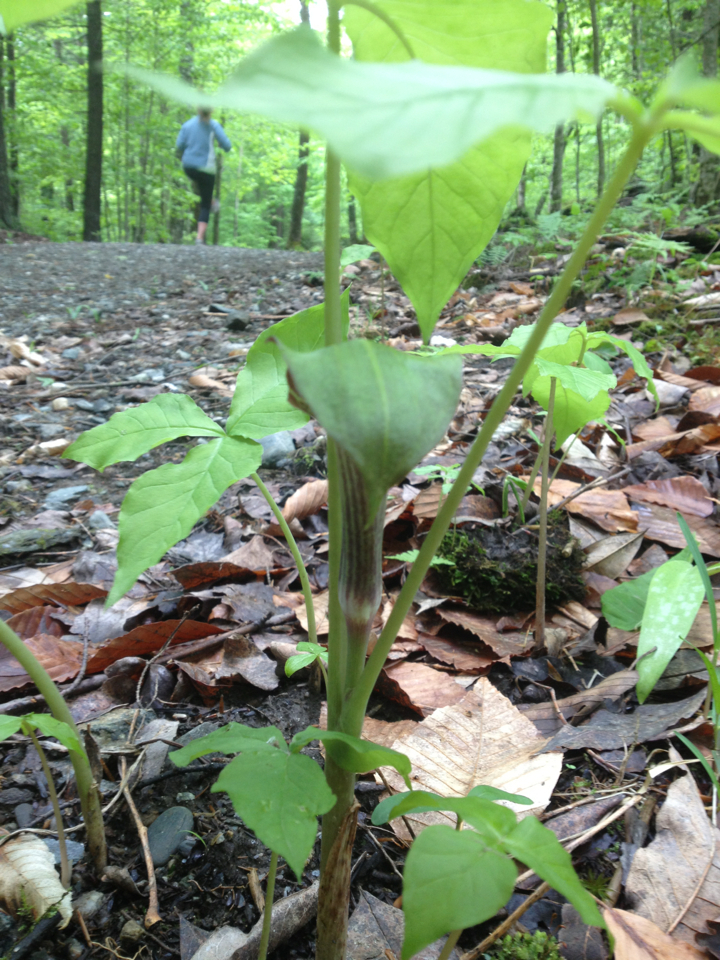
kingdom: Plantae
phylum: Tracheophyta
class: Liliopsida
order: Alismatales
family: Araceae
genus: Arisaema
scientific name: Arisaema triphyllum
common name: Jack-in-the-pulpit
